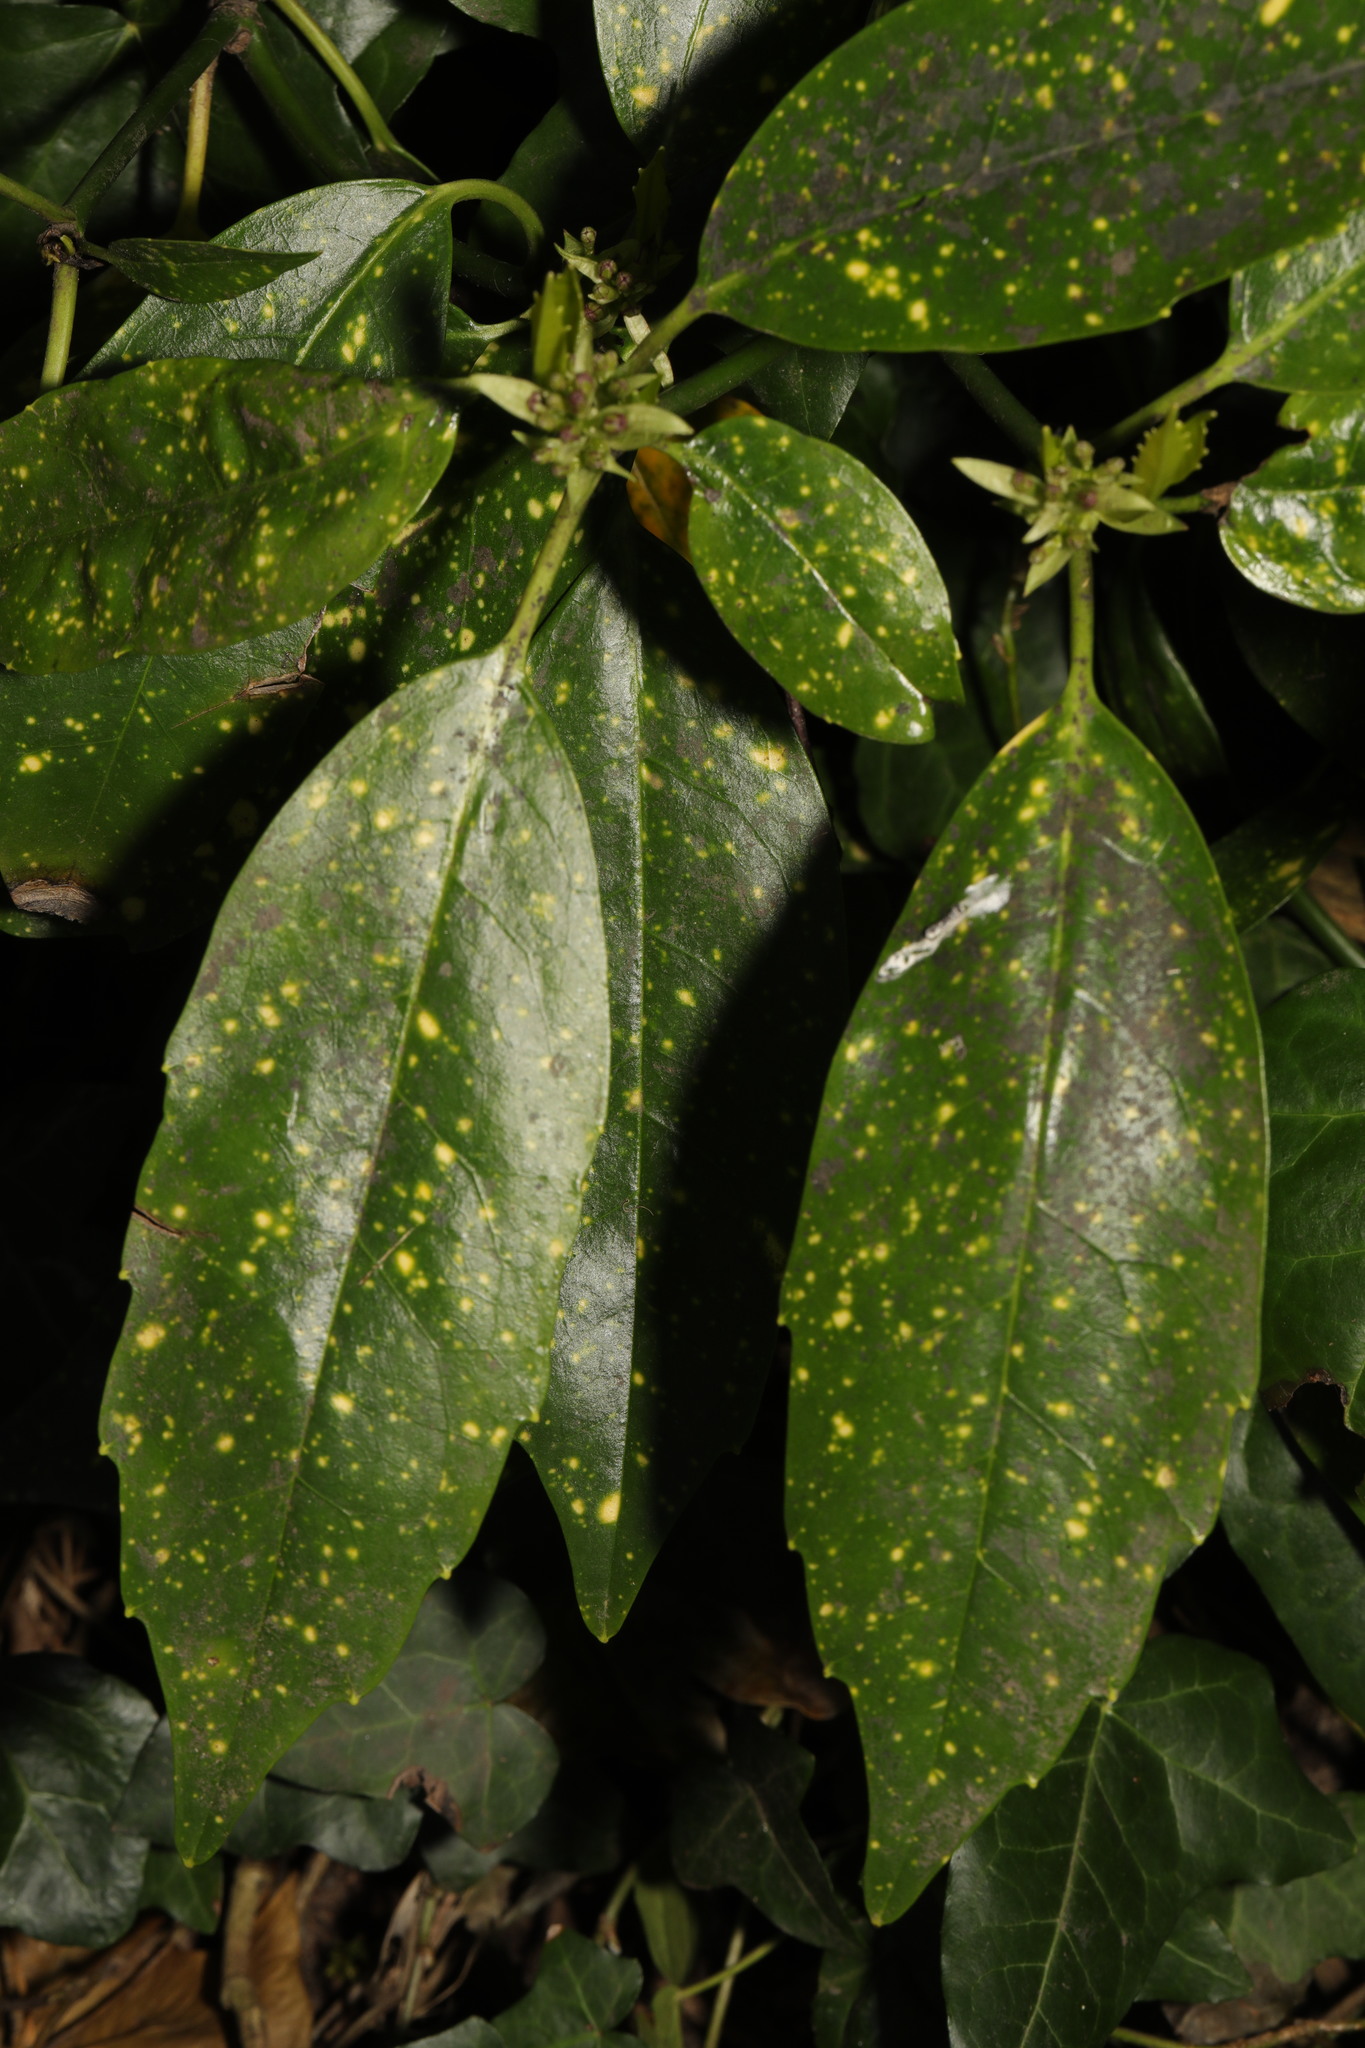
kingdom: Plantae
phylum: Tracheophyta
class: Magnoliopsida
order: Garryales
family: Garryaceae
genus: Aucuba
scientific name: Aucuba japonica
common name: Spotted-laurel
